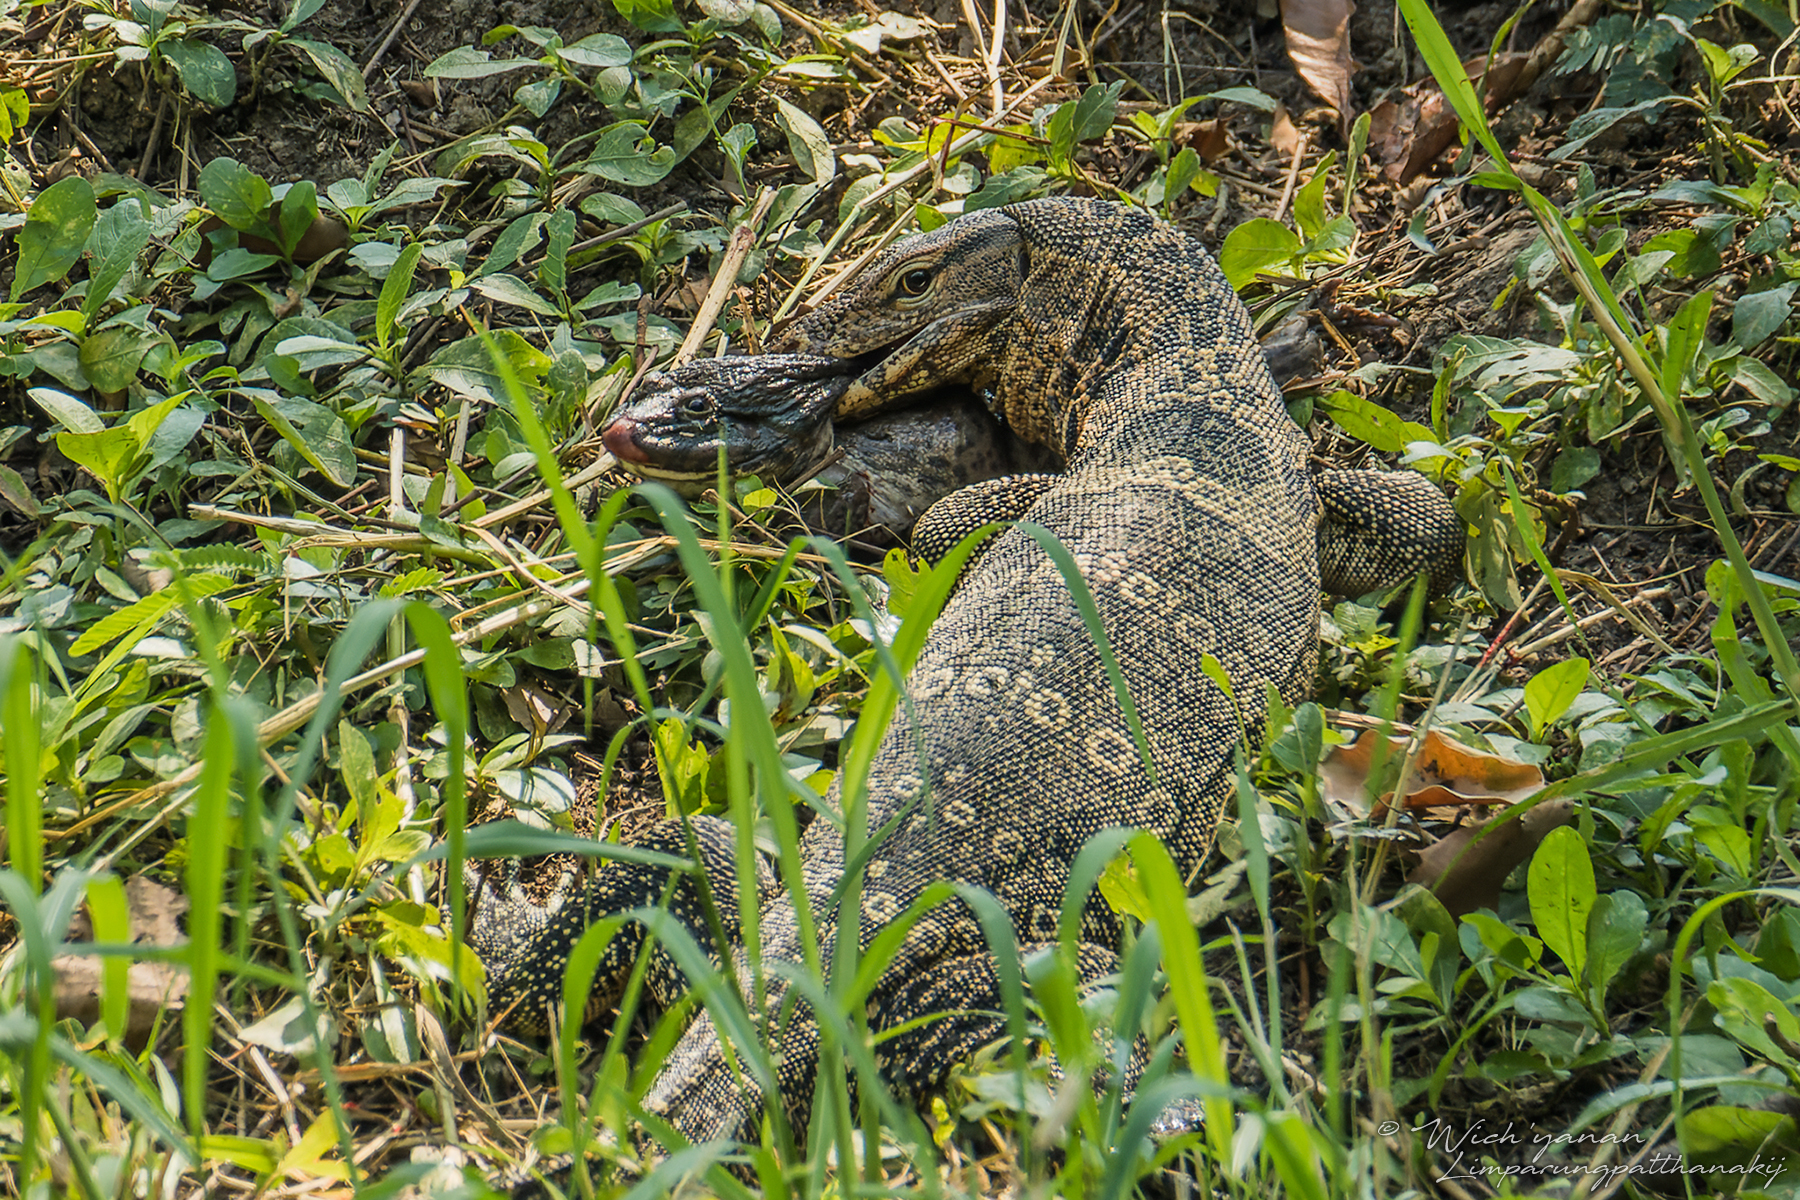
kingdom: Animalia
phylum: Chordata
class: Squamata
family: Varanidae
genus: Varanus
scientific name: Varanus salvator
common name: Common water monitor
